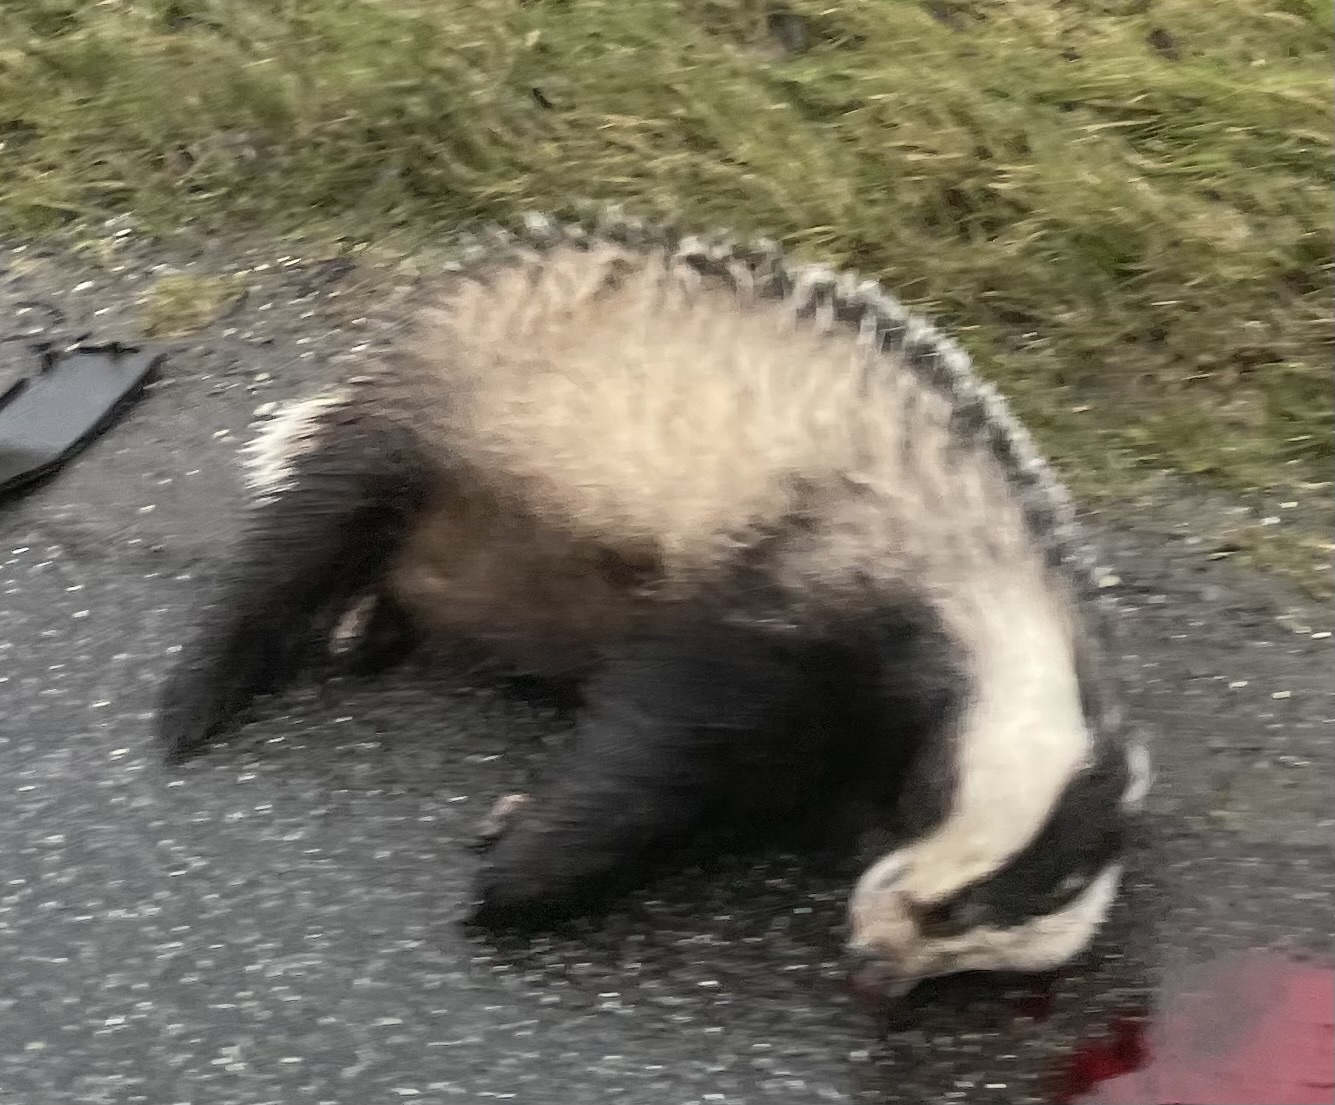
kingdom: Animalia
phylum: Chordata
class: Mammalia
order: Carnivora
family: Mustelidae
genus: Meles
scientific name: Meles meles
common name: Eurasian badger
